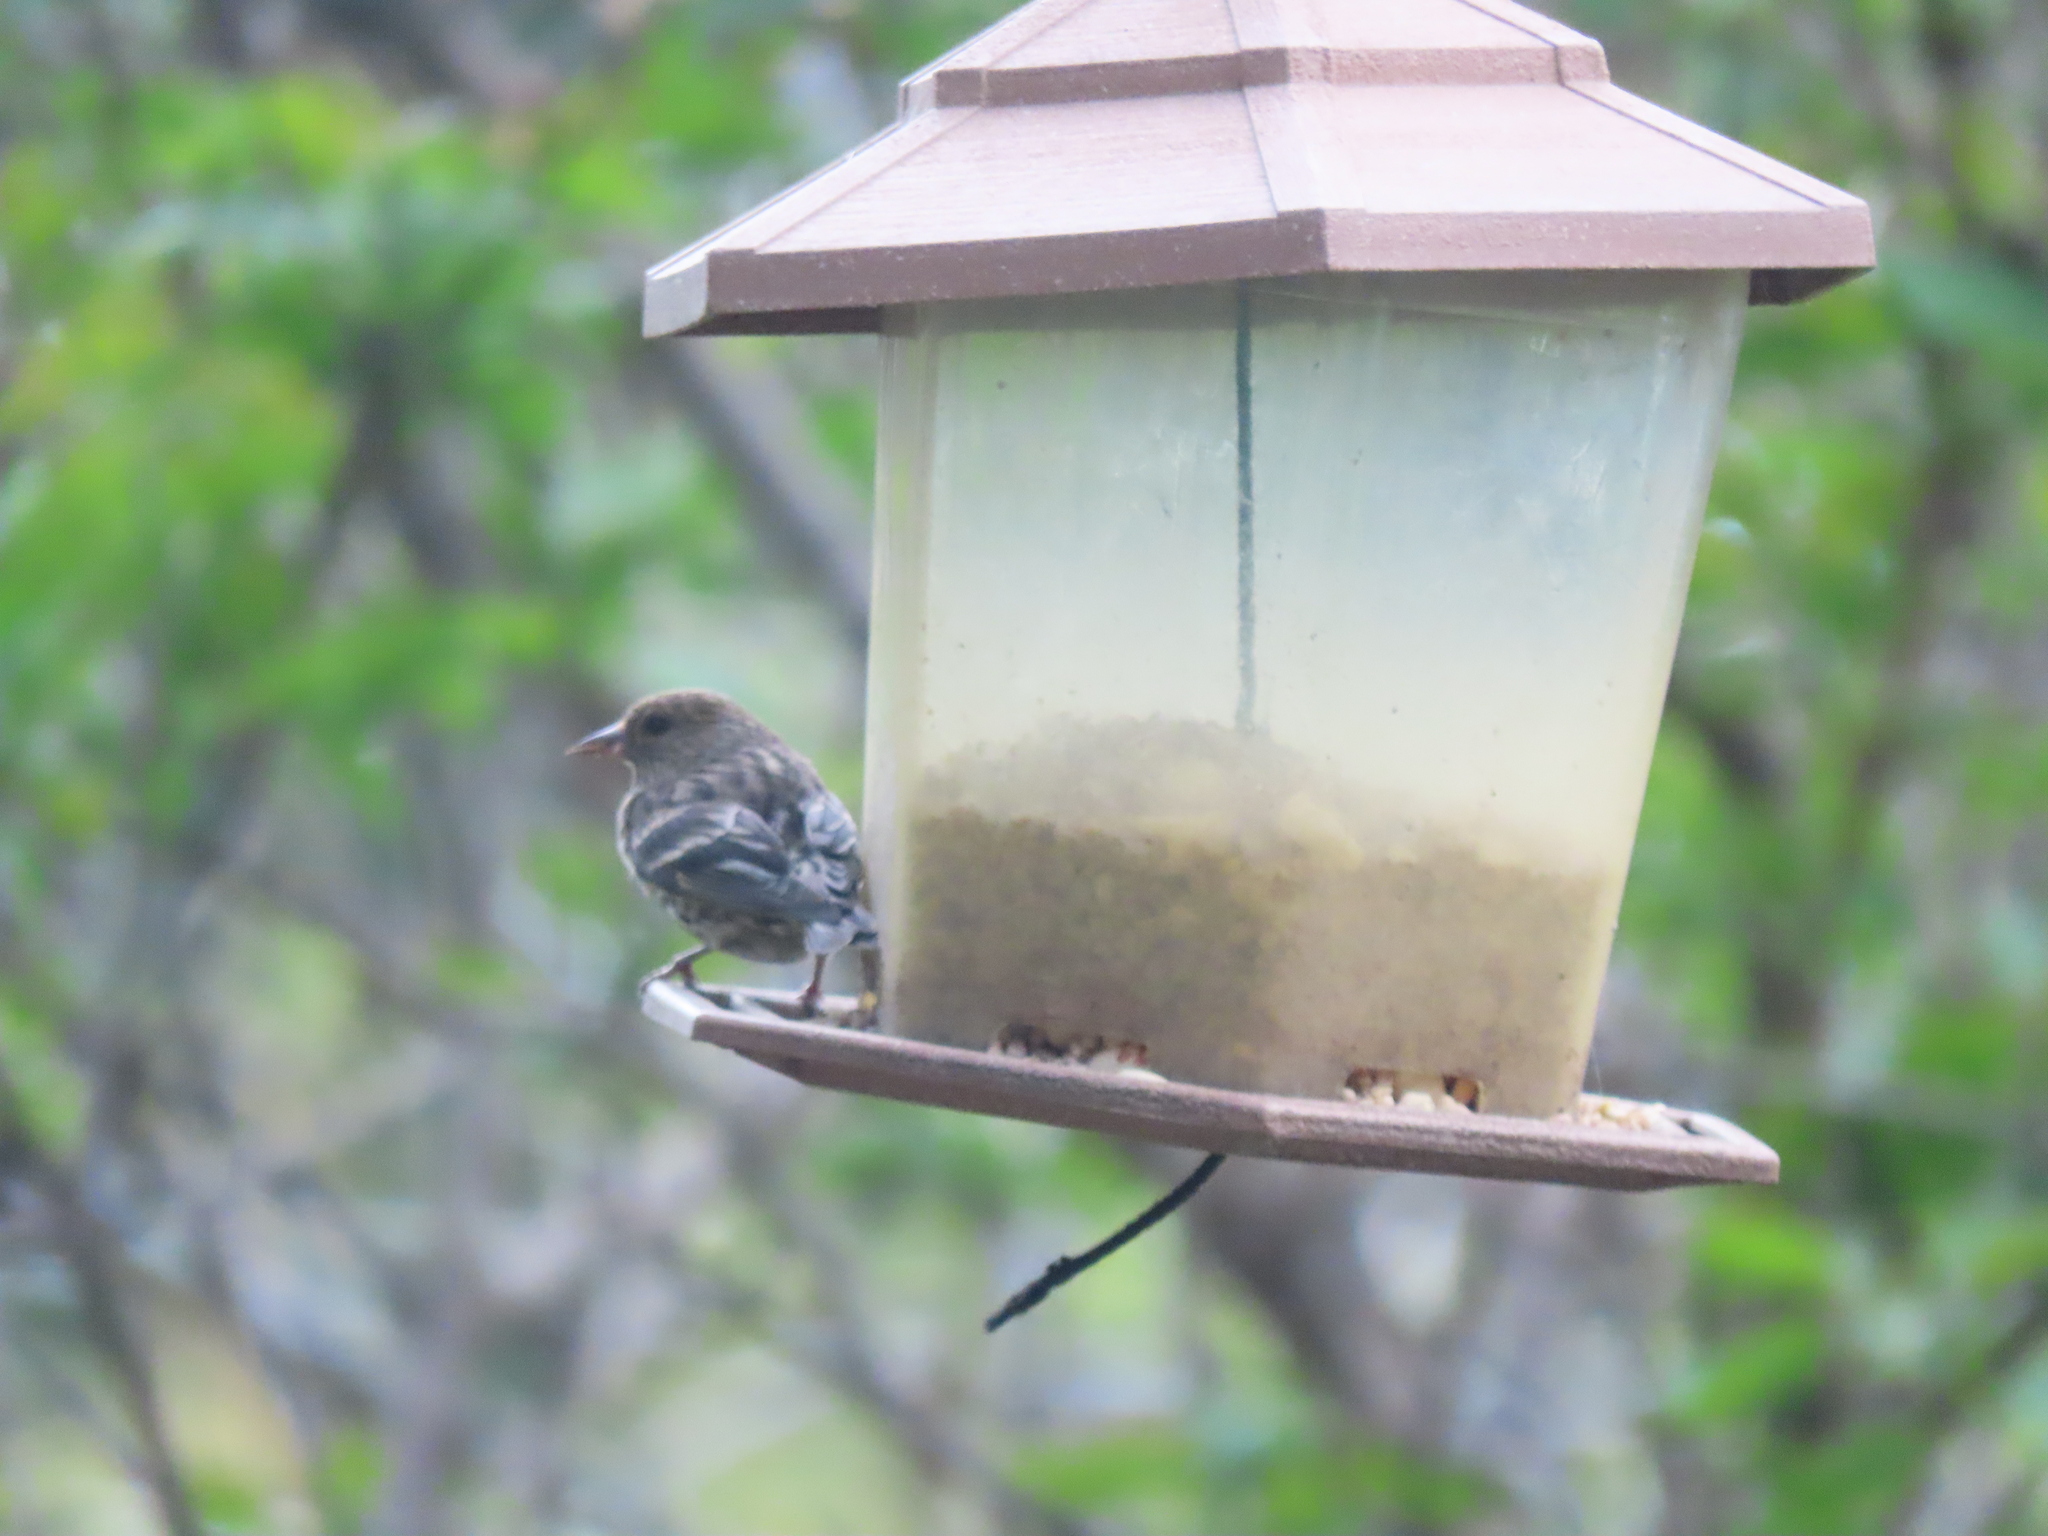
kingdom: Animalia
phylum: Chordata
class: Aves
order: Passeriformes
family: Fringillidae
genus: Spinus
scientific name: Spinus pinus
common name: Pine siskin
